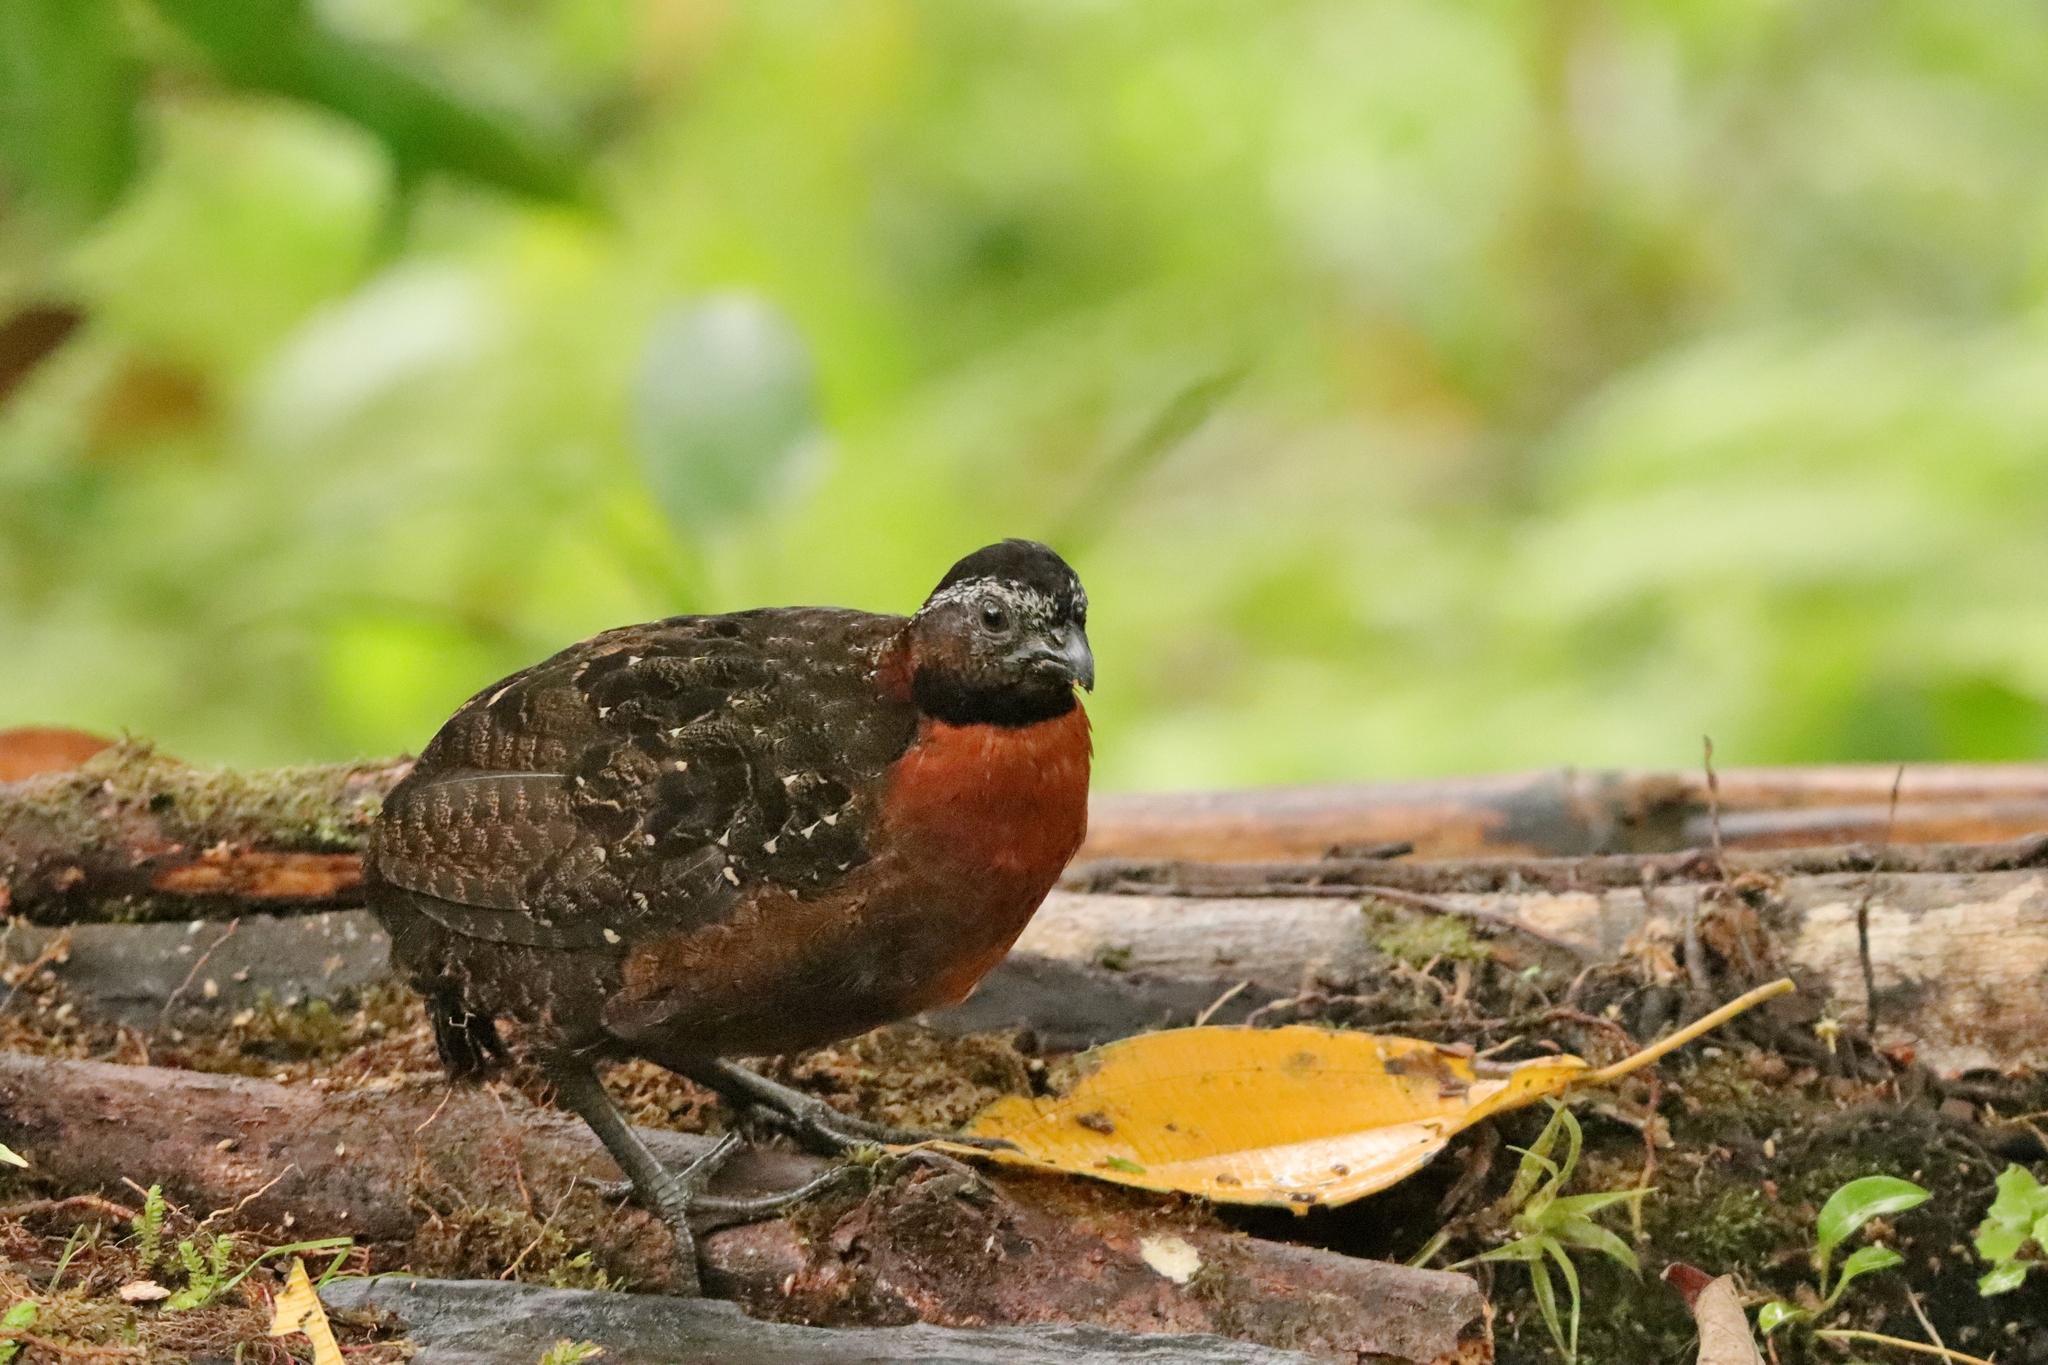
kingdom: Animalia
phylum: Chordata
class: Aves
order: Galliformes
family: Odontophoridae
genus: Odontophorus
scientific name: Odontophorus speciosus
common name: Rufous-breasted wood quail
